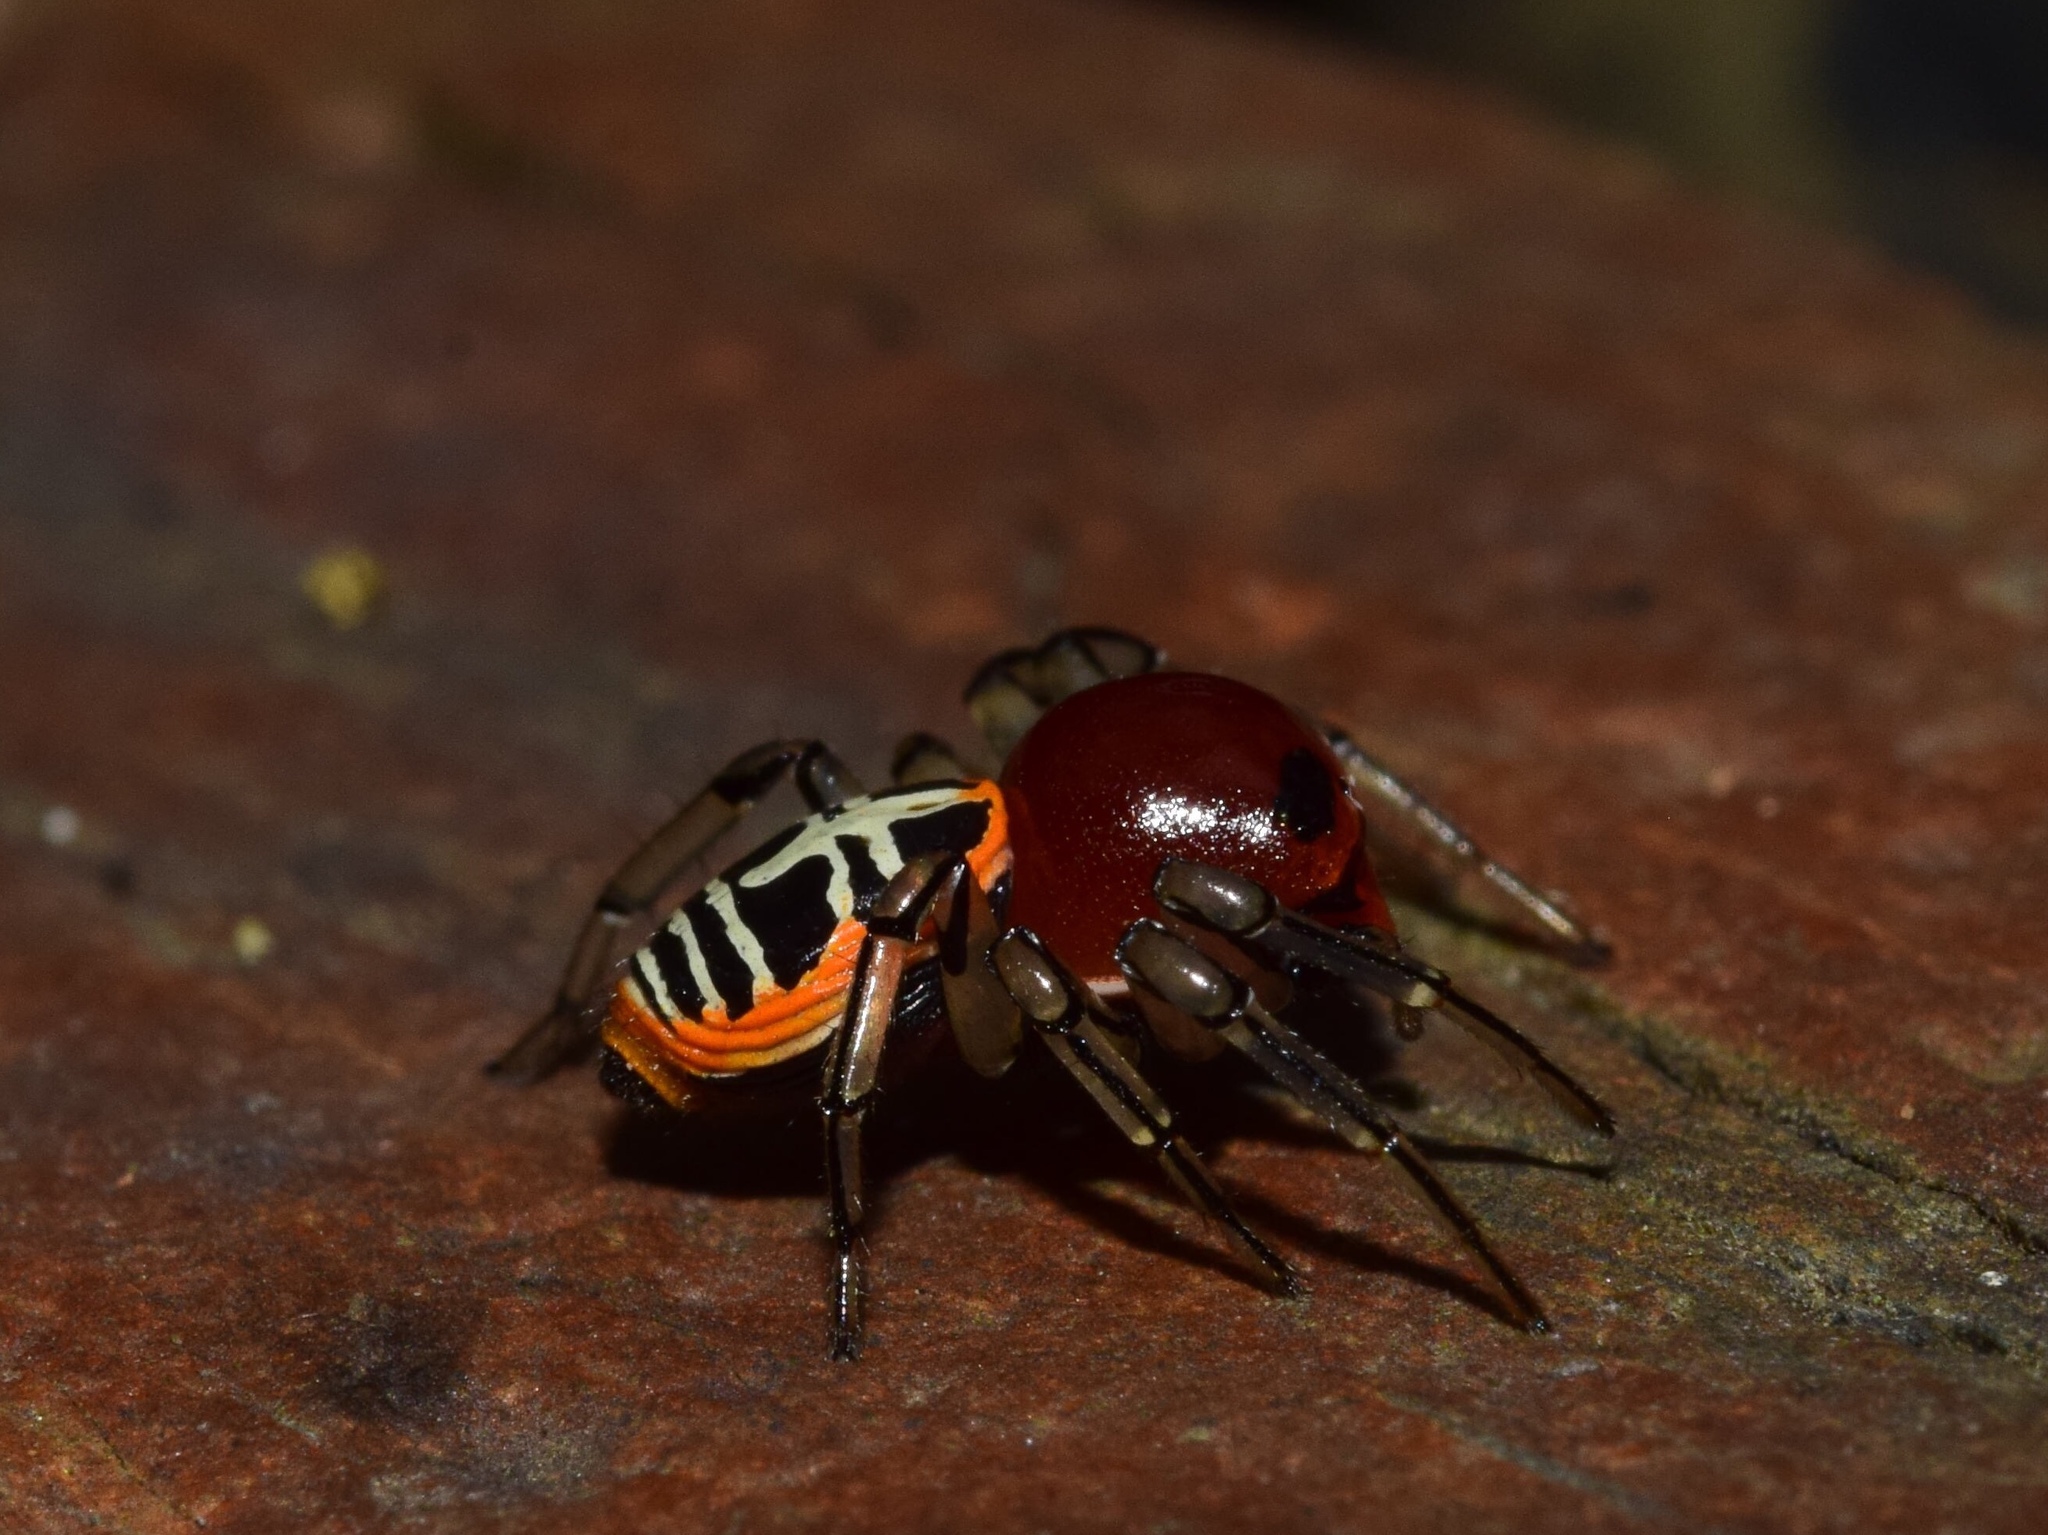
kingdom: Animalia
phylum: Arthropoda
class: Arachnida
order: Araneae
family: Thomisidae
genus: Camaricus
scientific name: Camaricus nigrotesselatus
